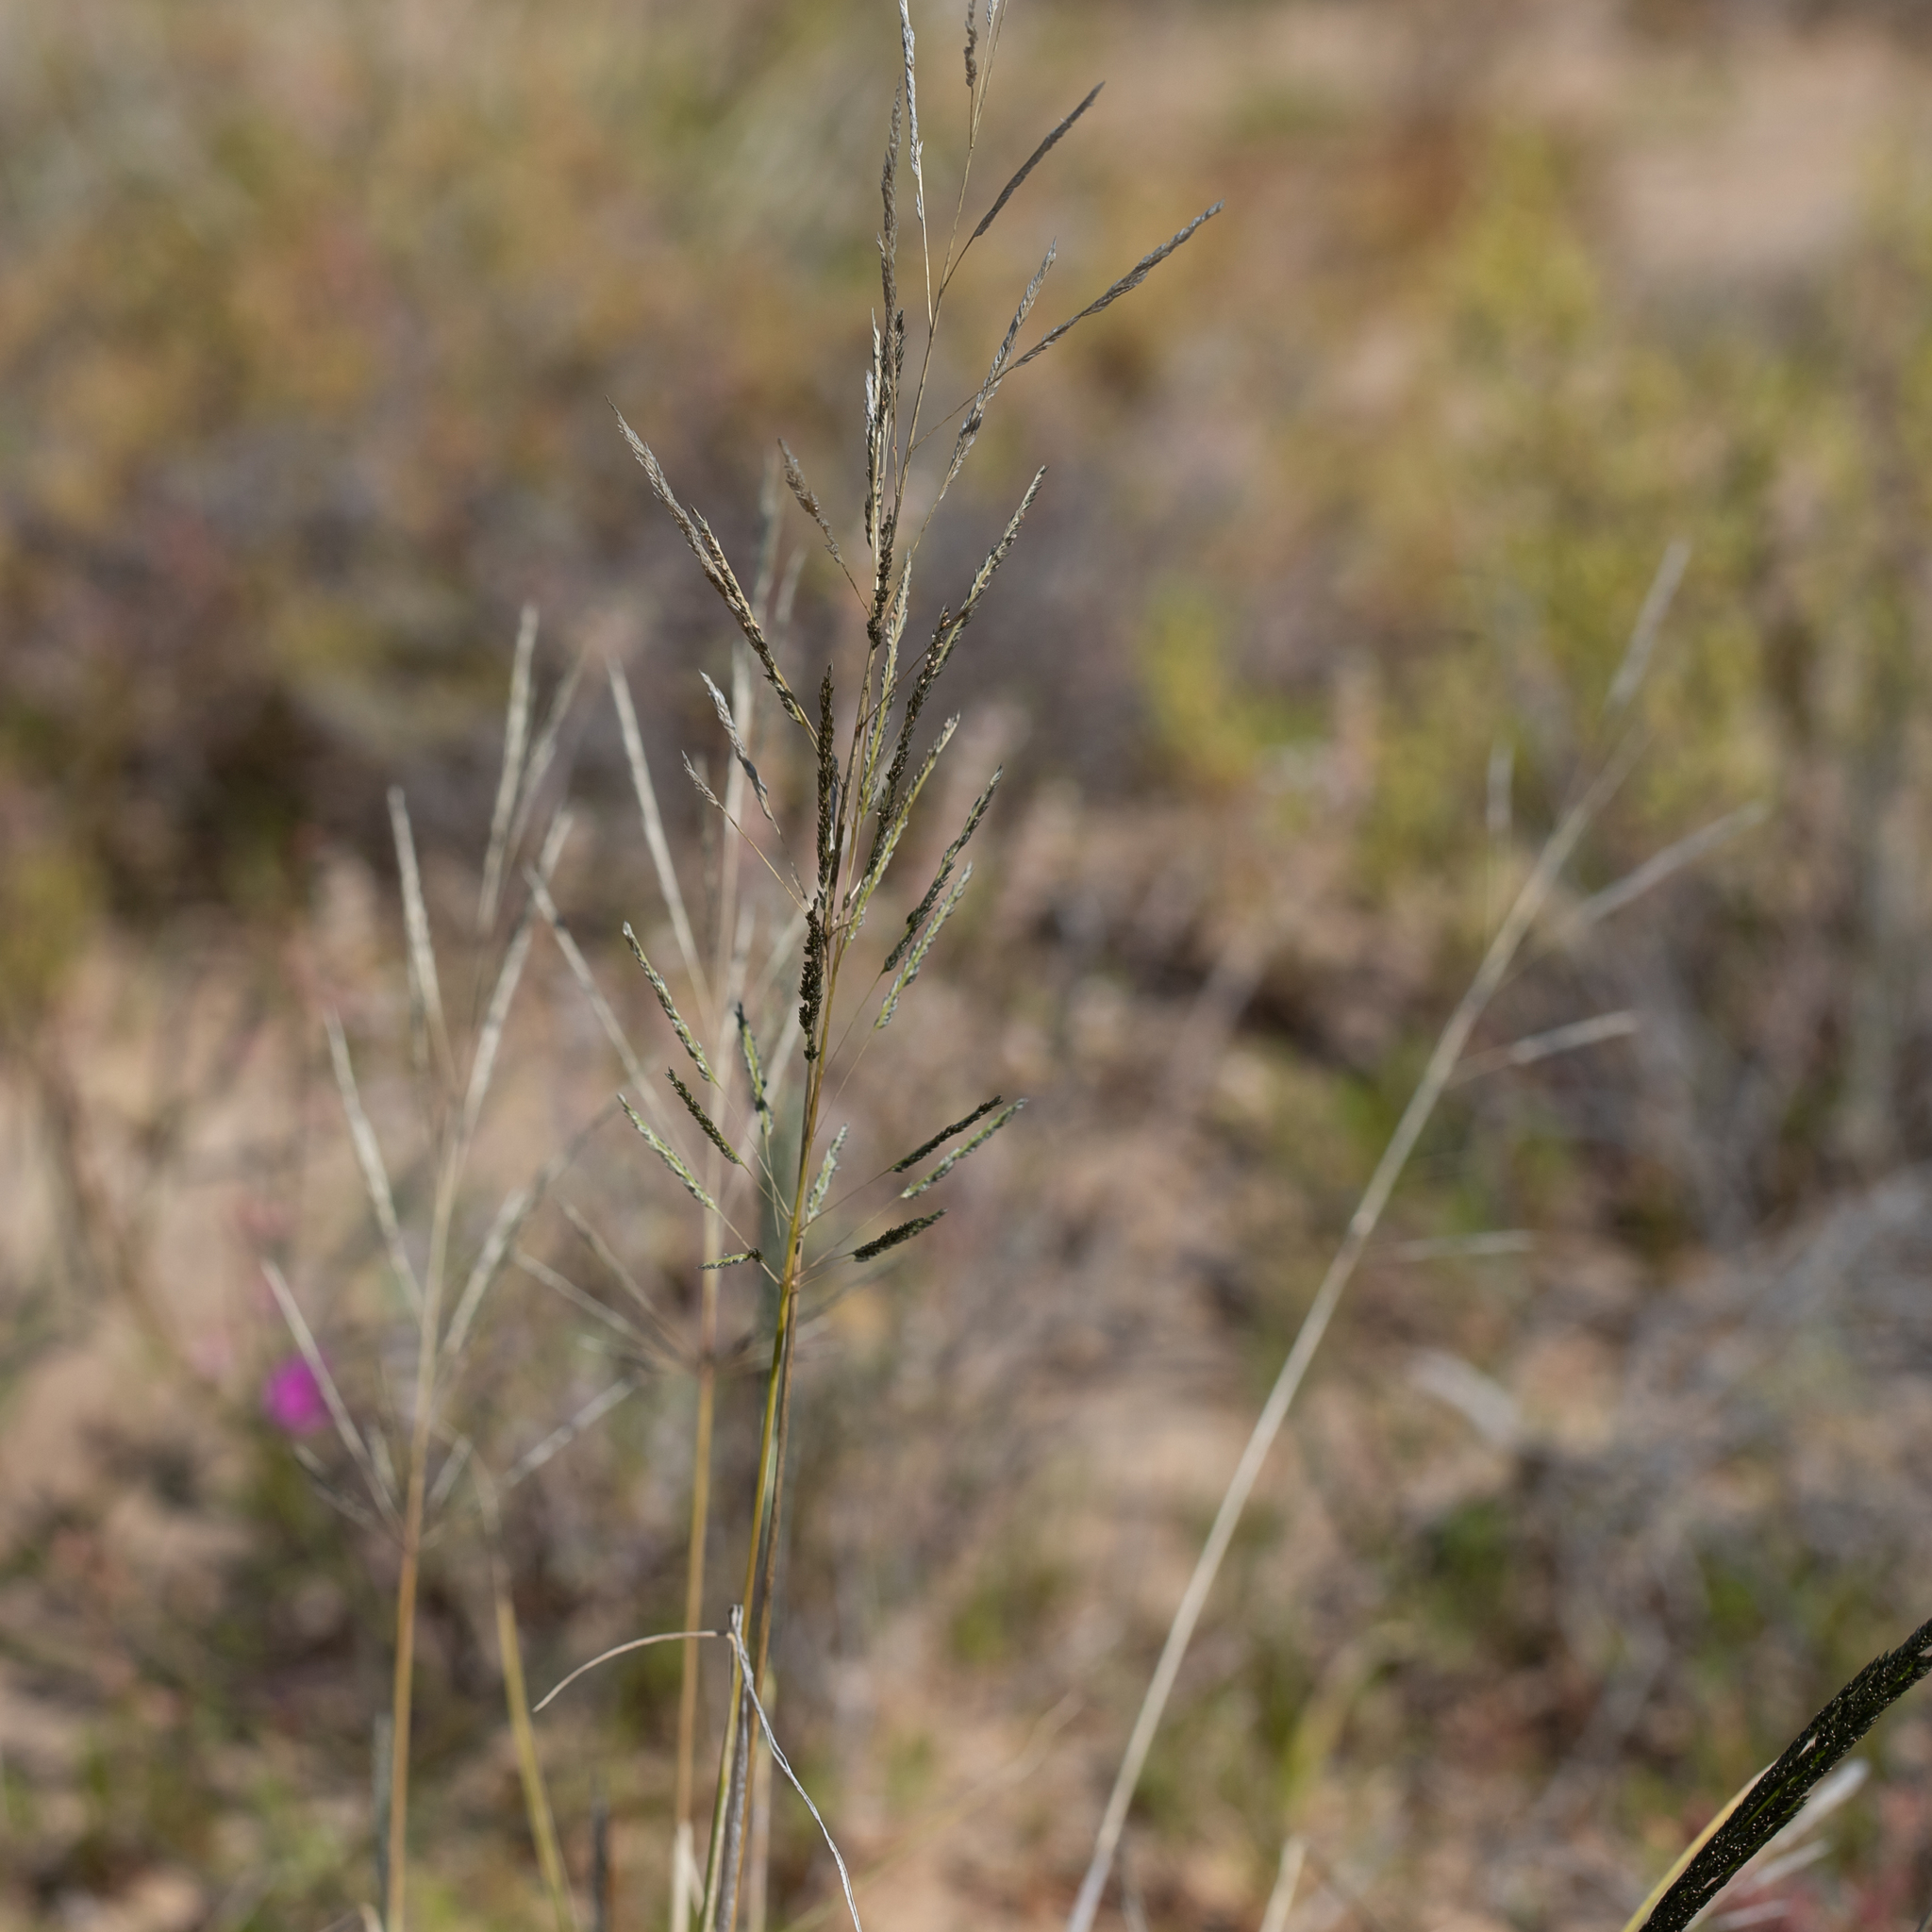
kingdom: Plantae
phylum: Tracheophyta
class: Liliopsida
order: Poales
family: Poaceae
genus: Sporobolus
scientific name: Sporobolus actinocladus
